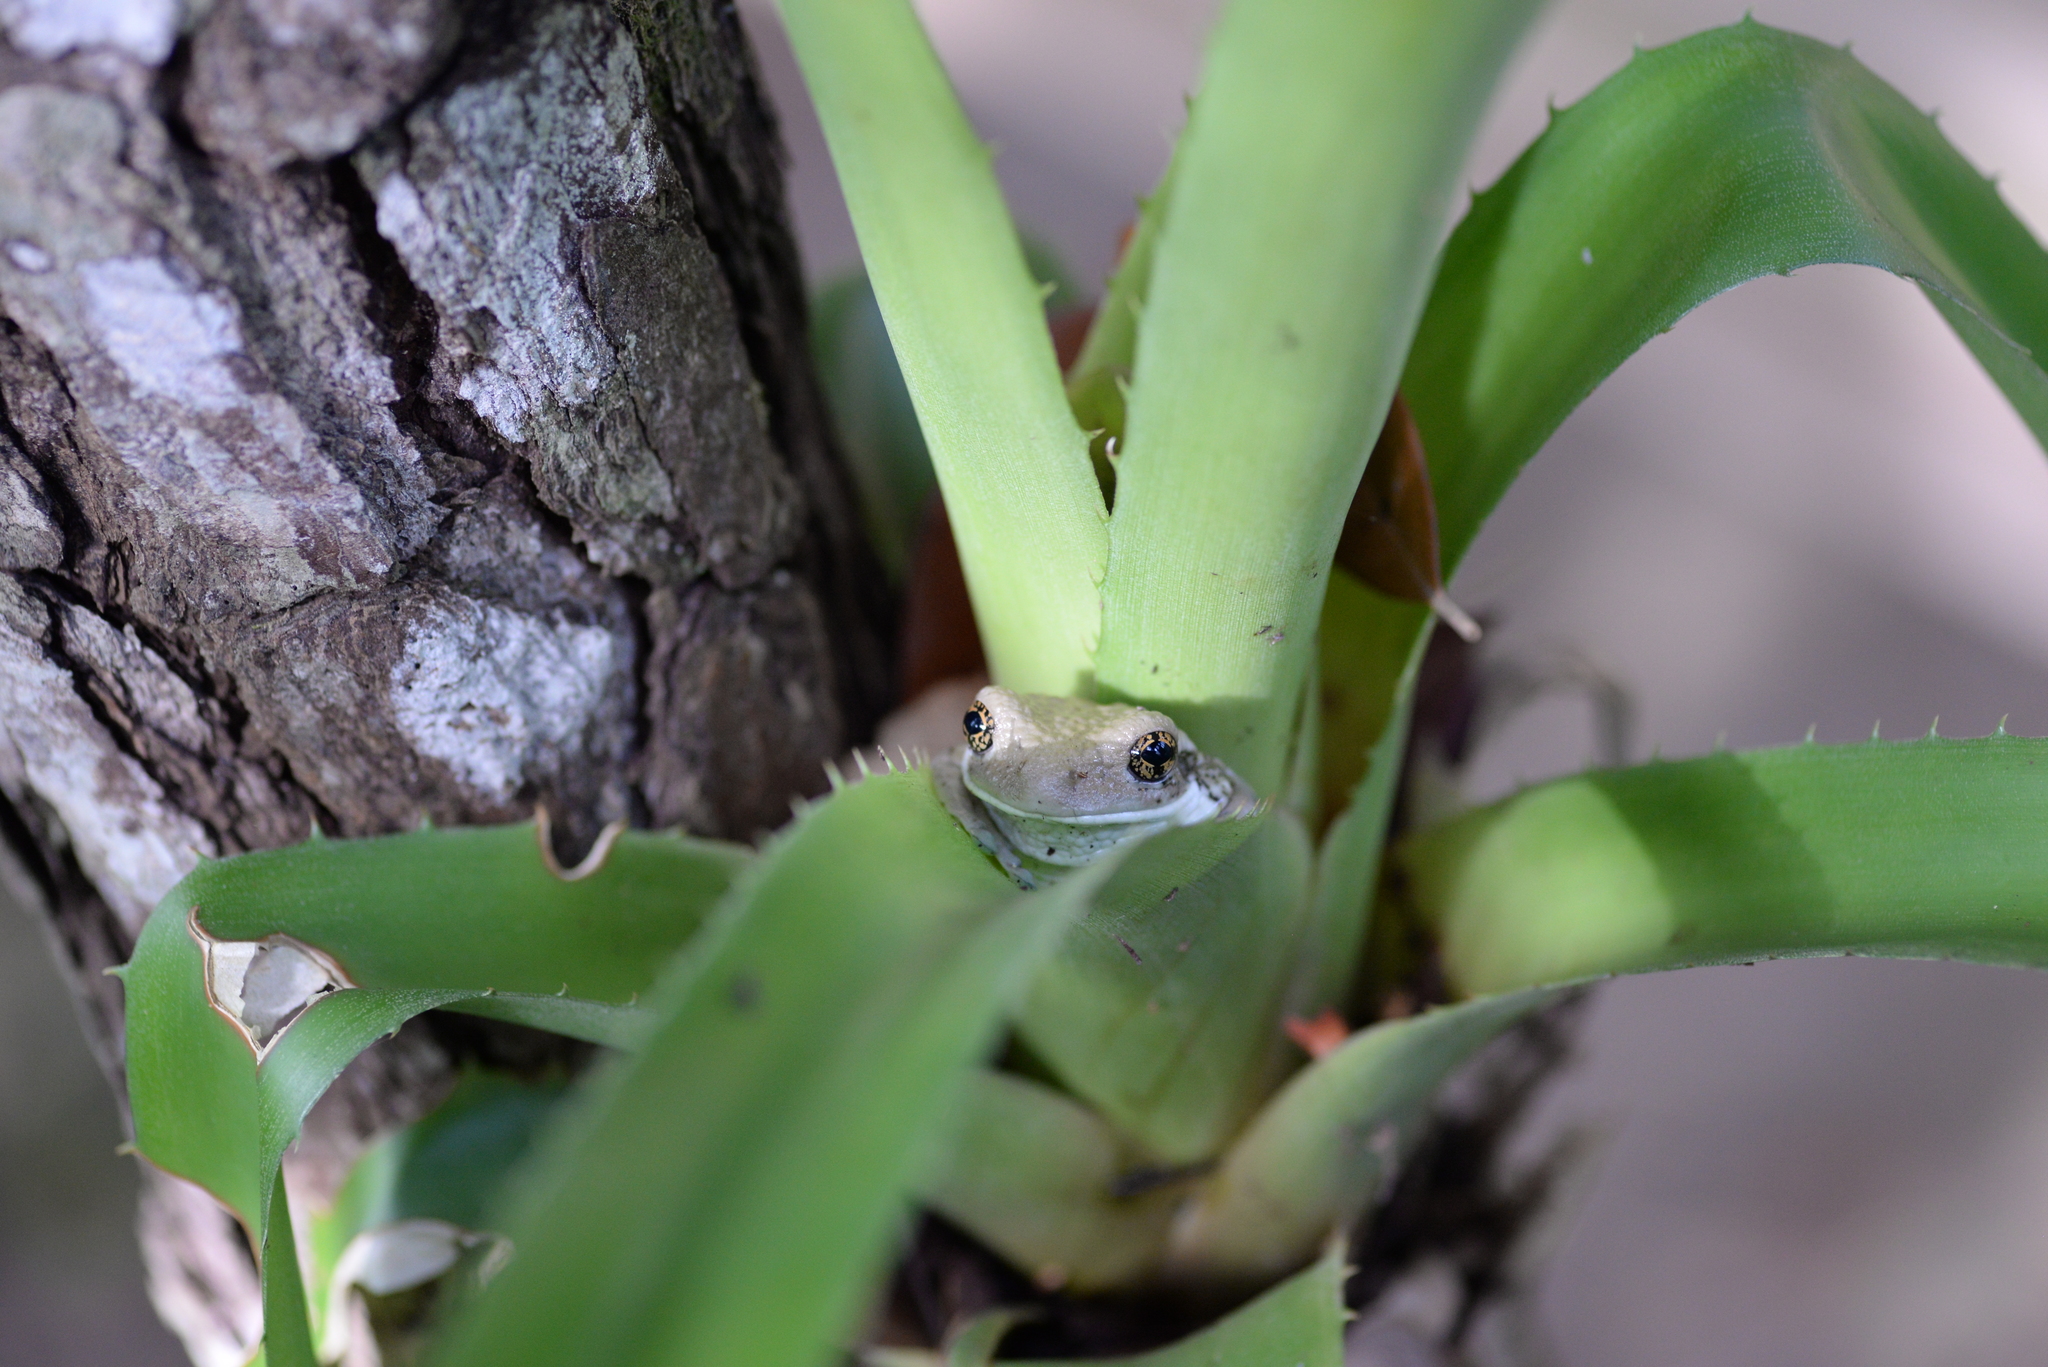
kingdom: Animalia
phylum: Chordata
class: Amphibia
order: Anura
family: Hylidae
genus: Trachycephalus
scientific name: Trachycephalus vermiculatus
